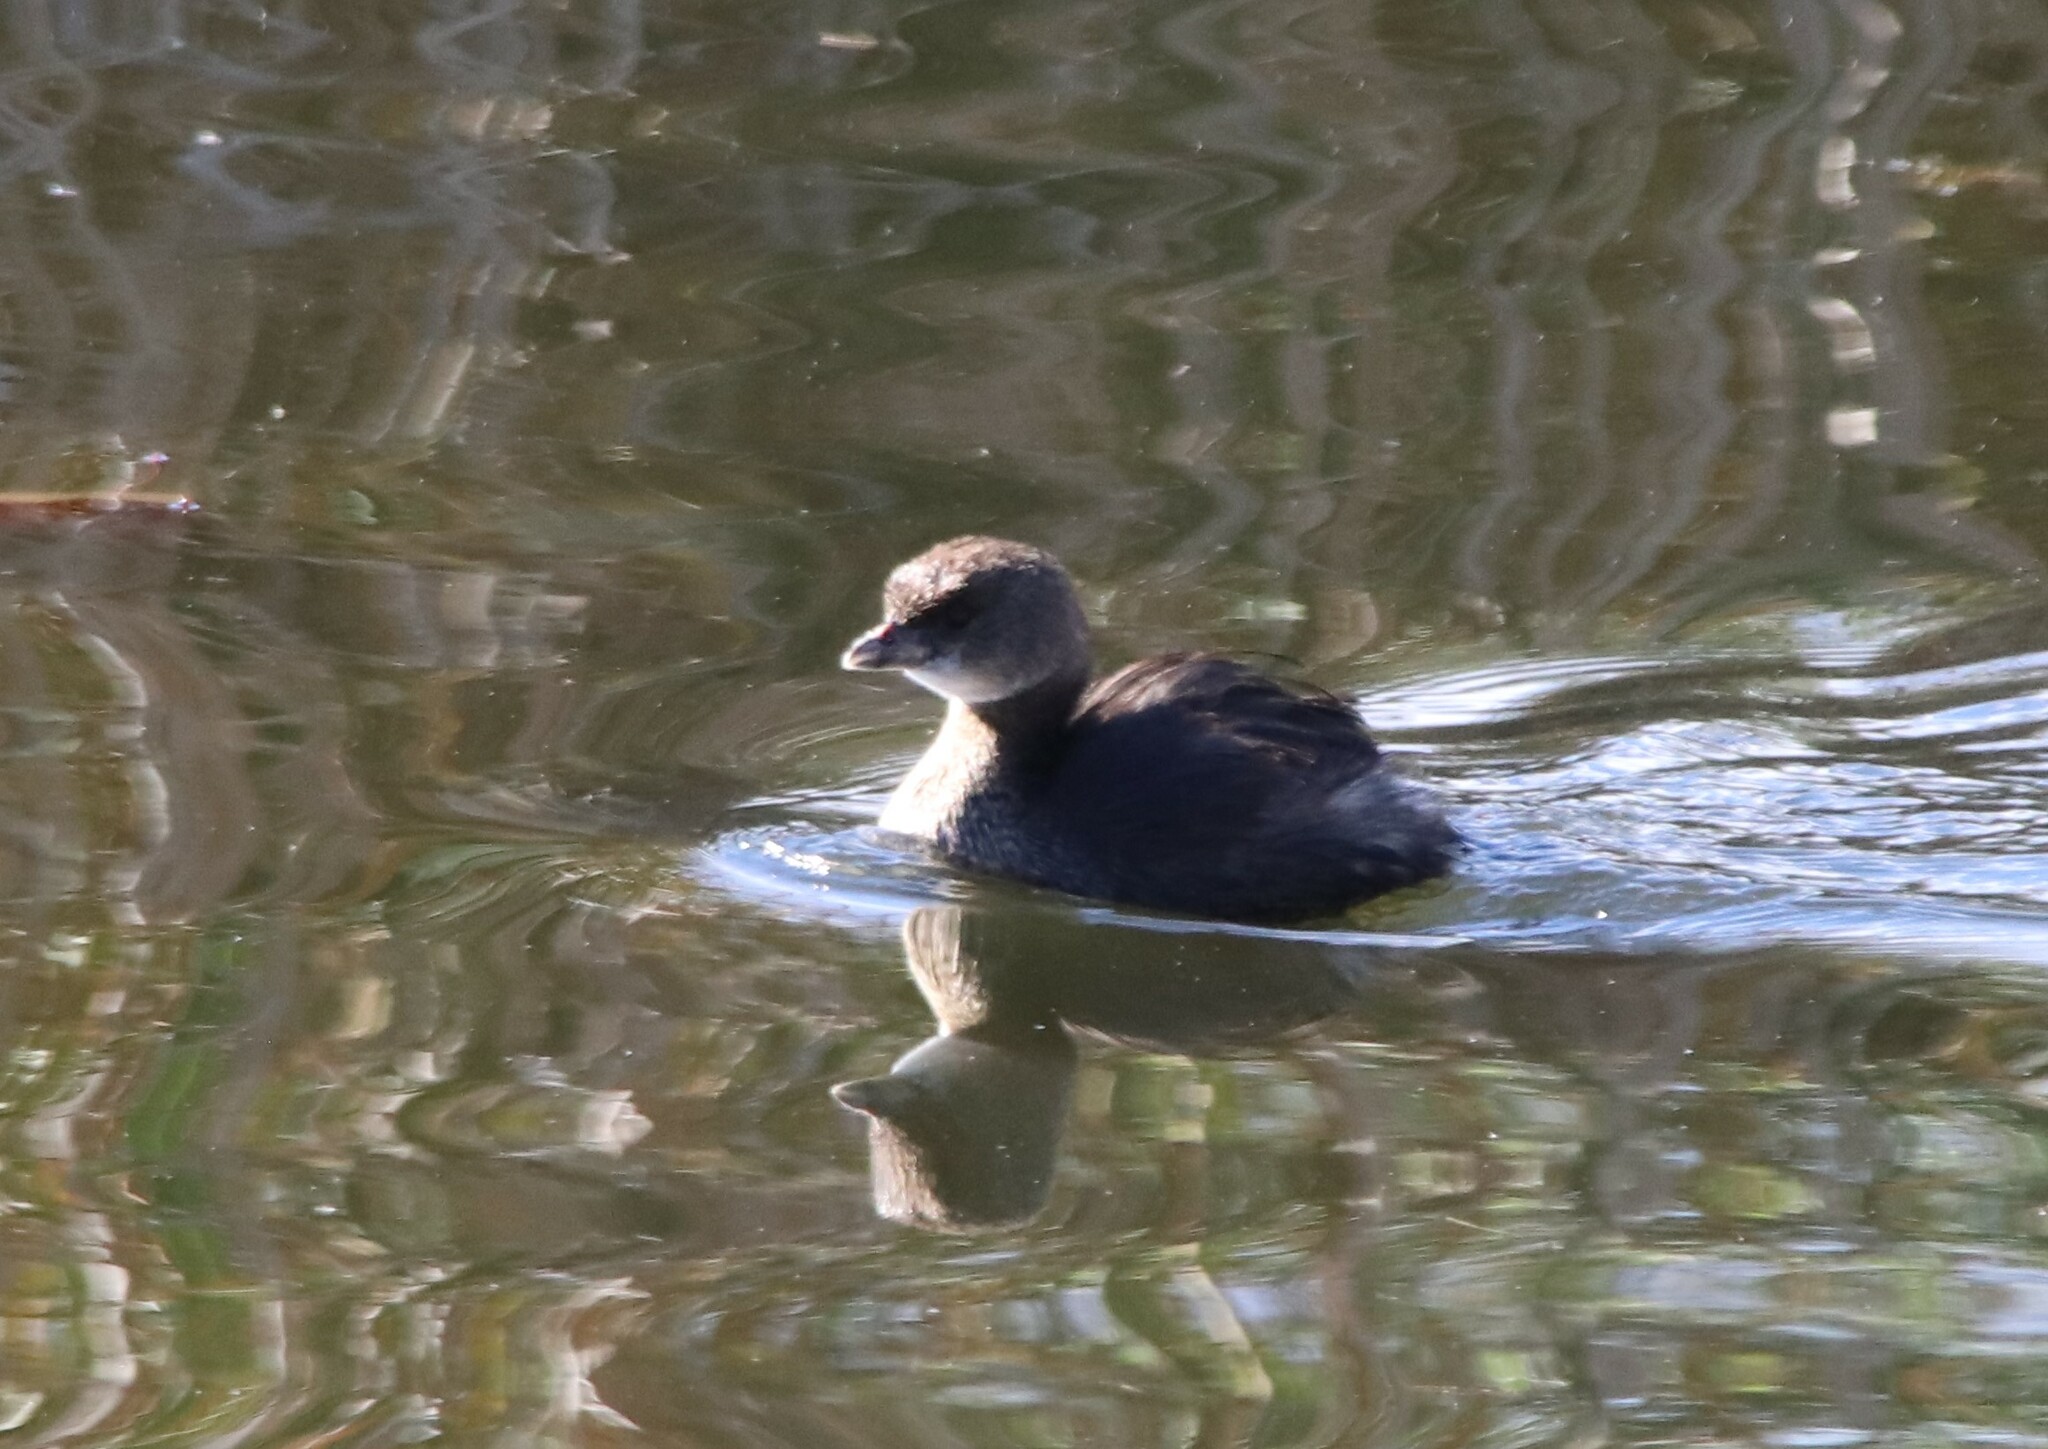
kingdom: Animalia
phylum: Chordata
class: Aves
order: Podicipediformes
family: Podicipedidae
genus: Podilymbus
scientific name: Podilymbus podiceps
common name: Pied-billed grebe
